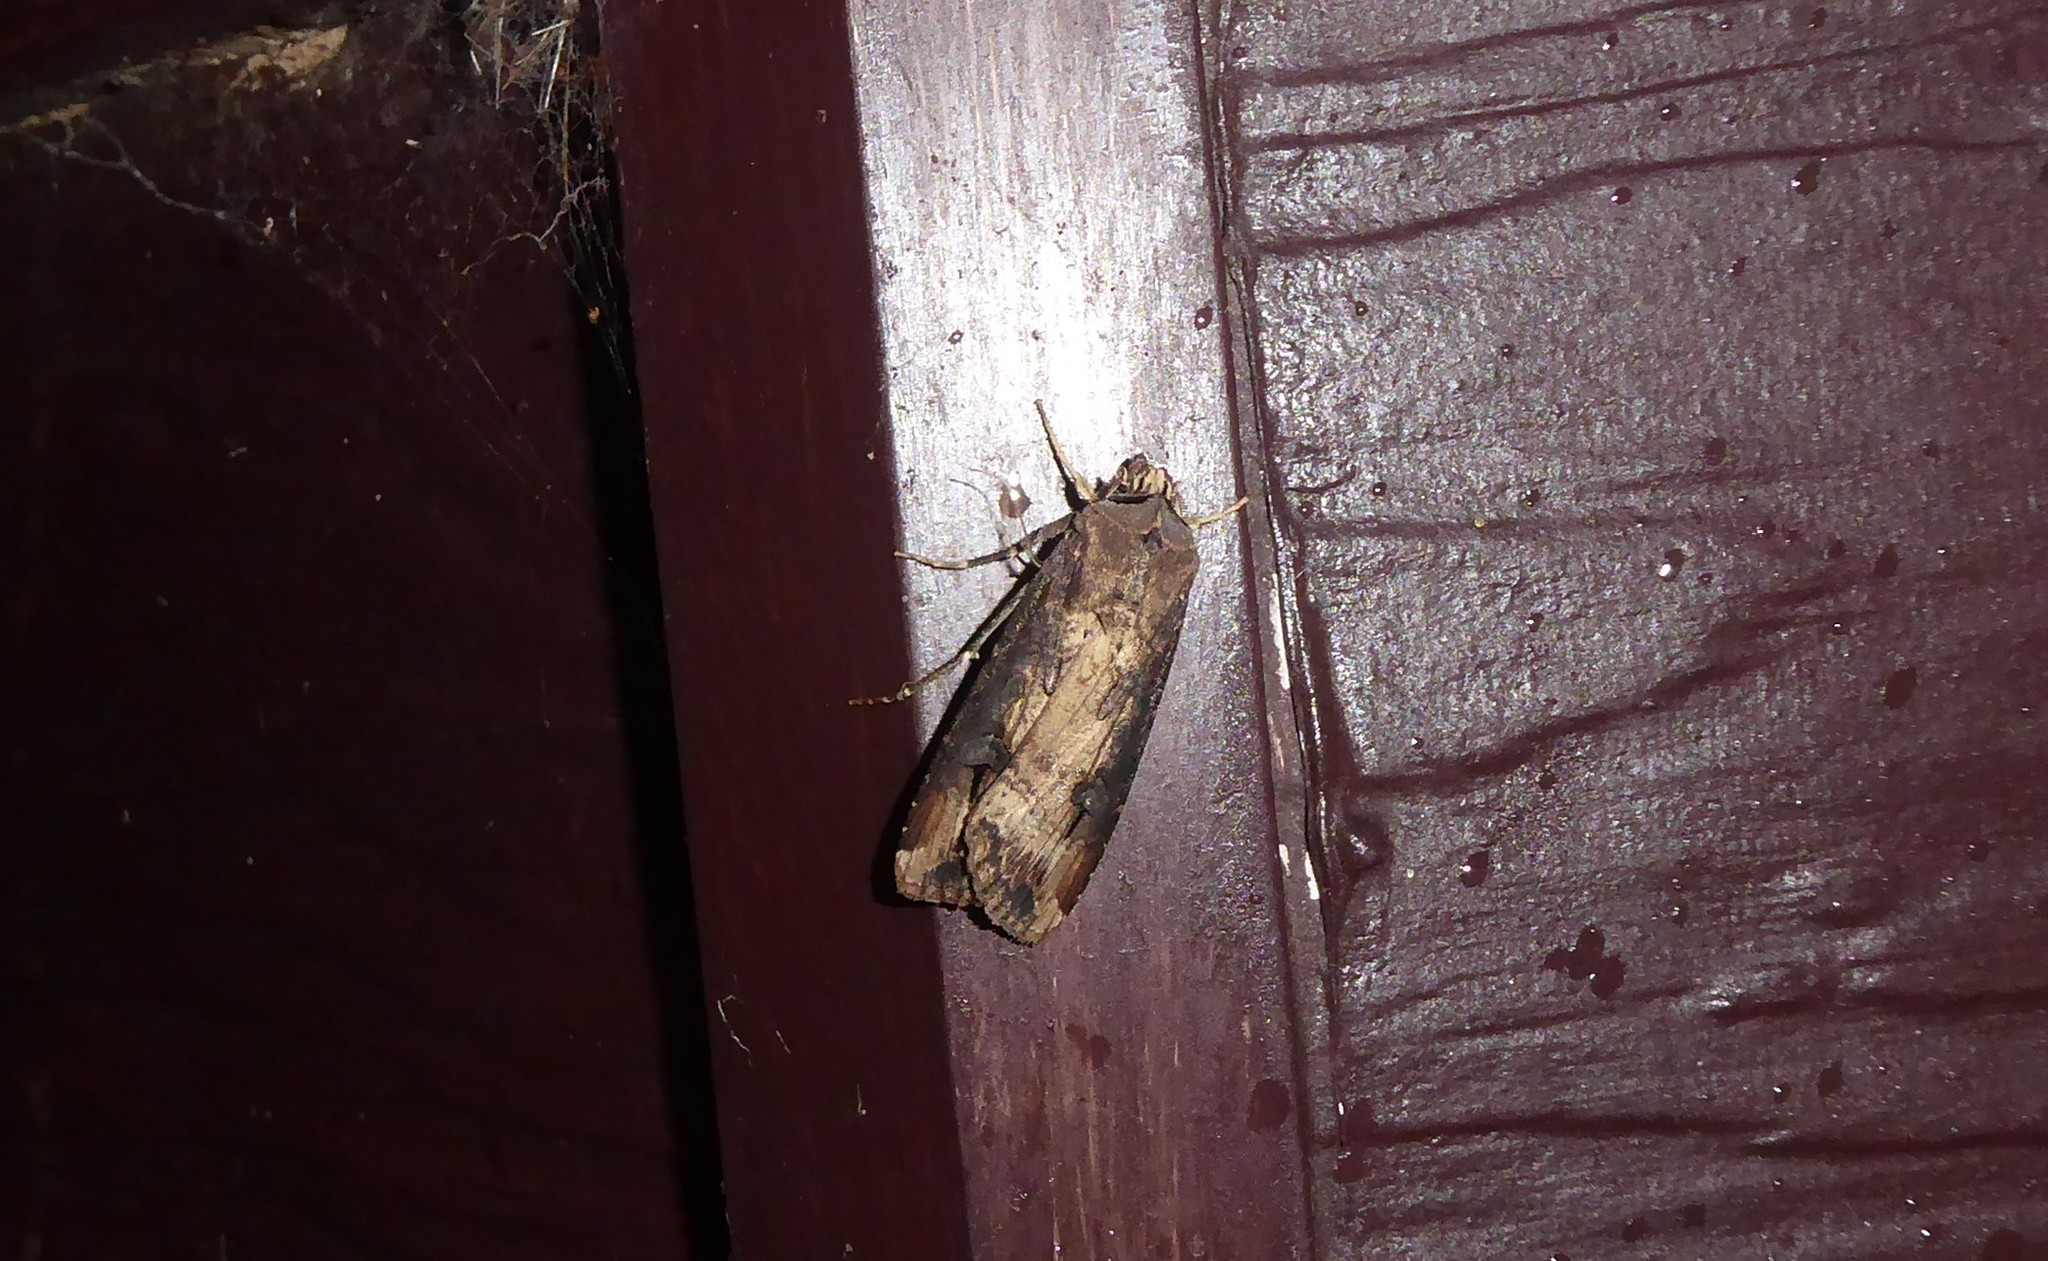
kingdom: Animalia
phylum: Arthropoda
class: Insecta
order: Lepidoptera
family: Noctuidae
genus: Agrotis
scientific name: Agrotis ipsilon
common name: Dark sword-grass
